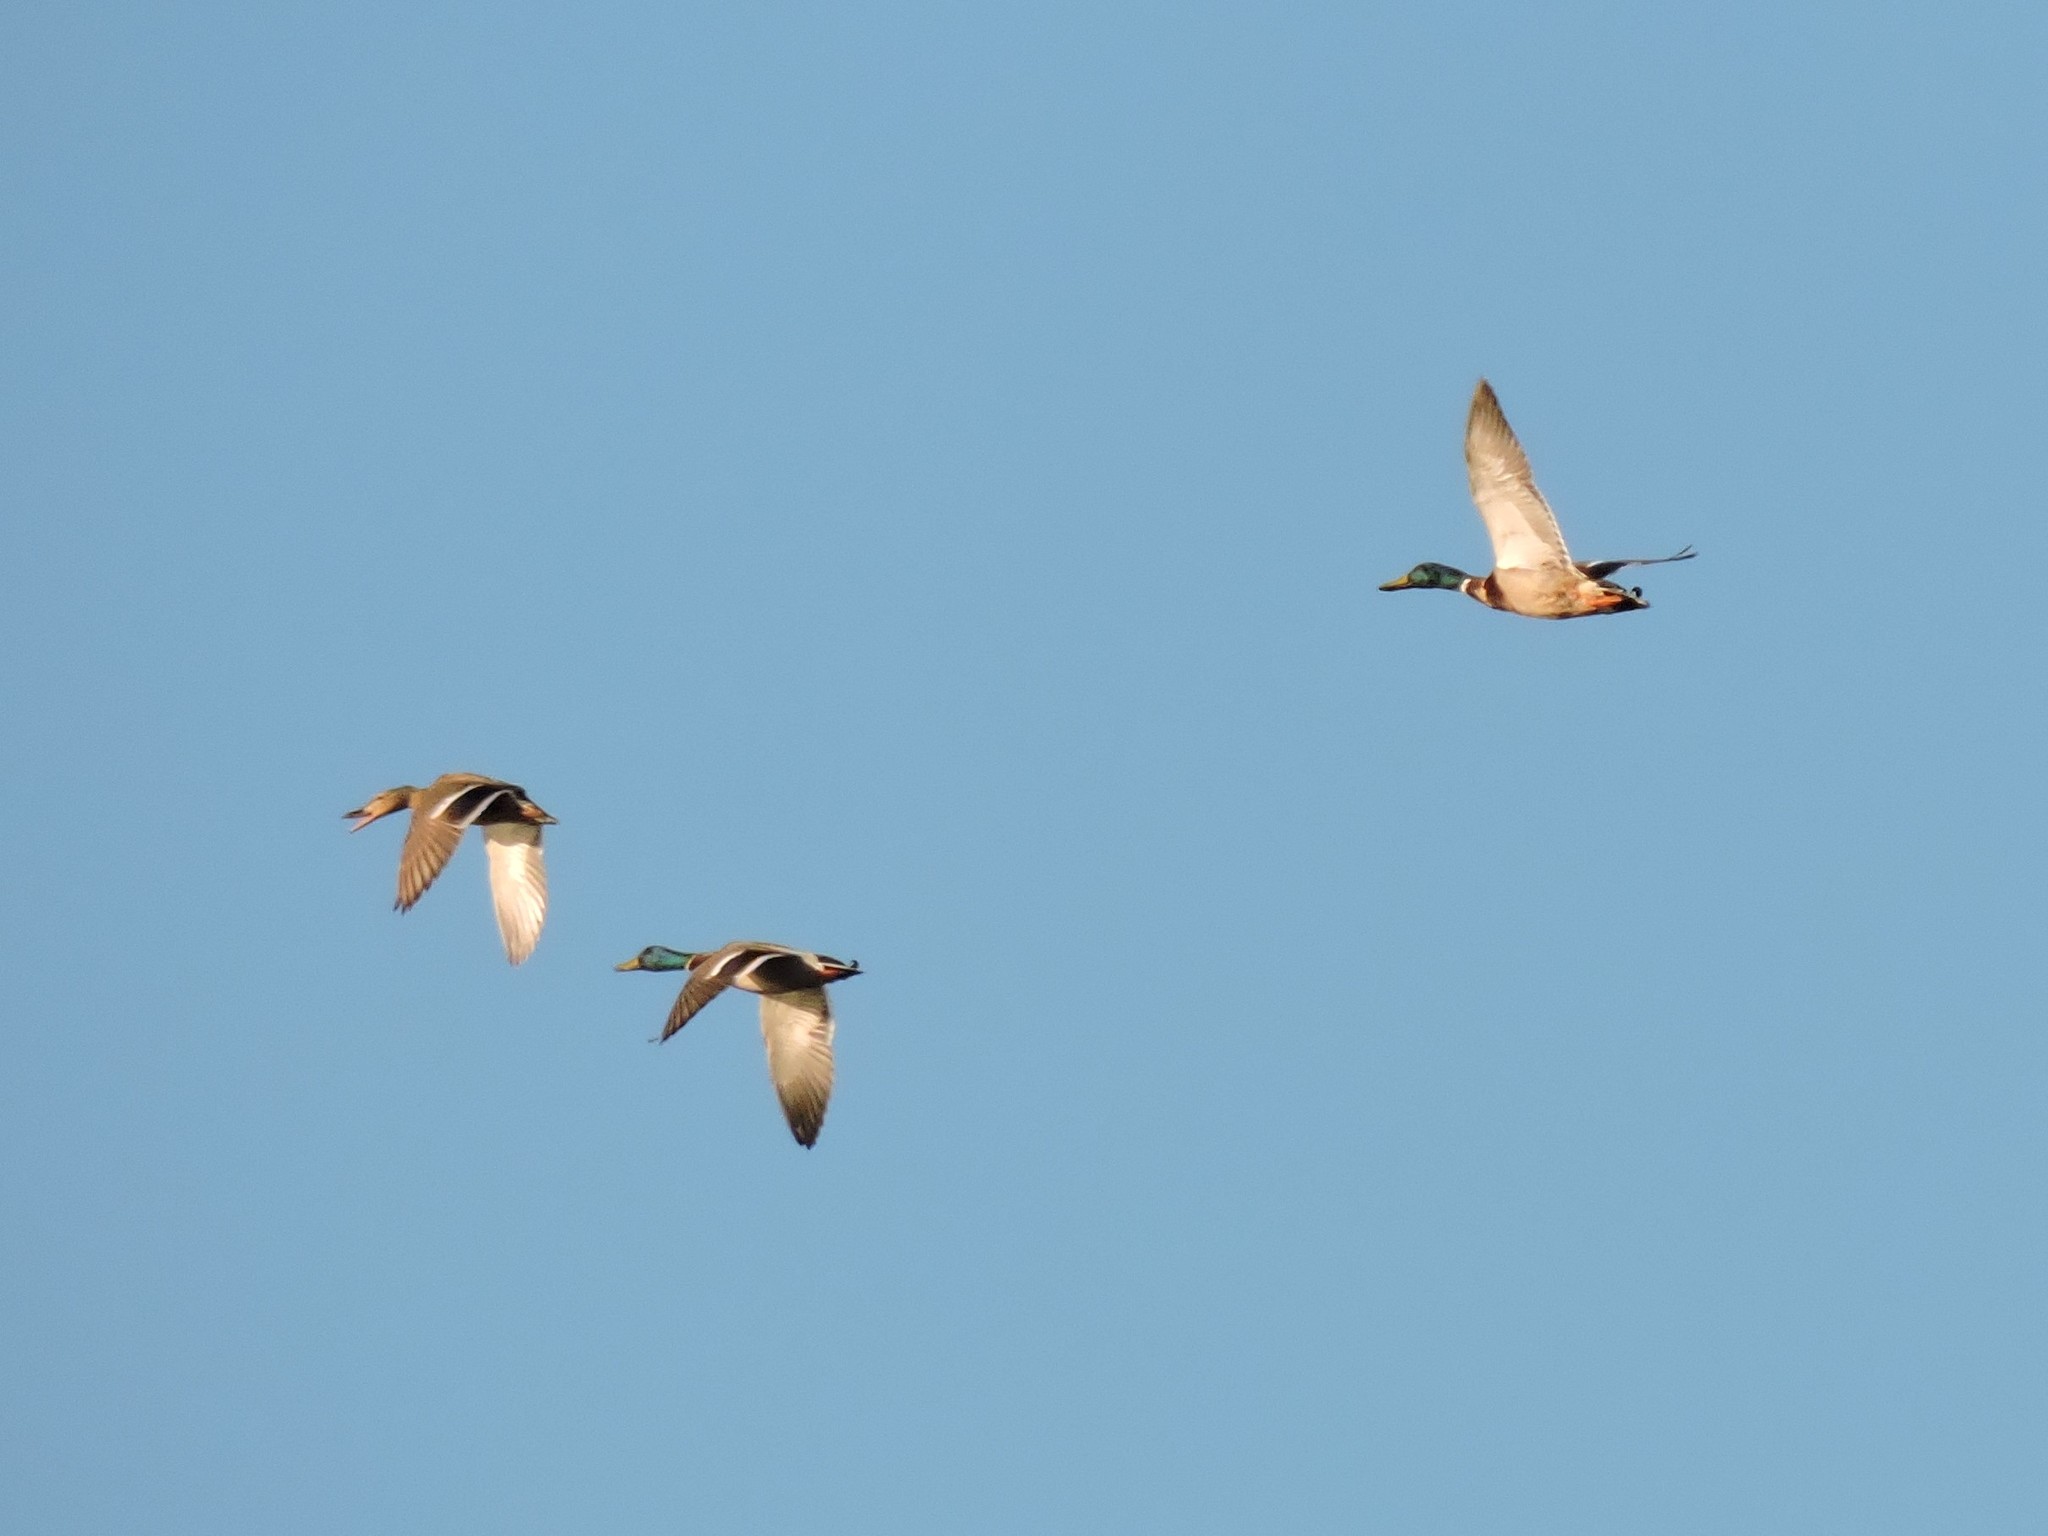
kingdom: Animalia
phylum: Chordata
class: Aves
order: Anseriformes
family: Anatidae
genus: Anas
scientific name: Anas platyrhynchos
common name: Mallard
